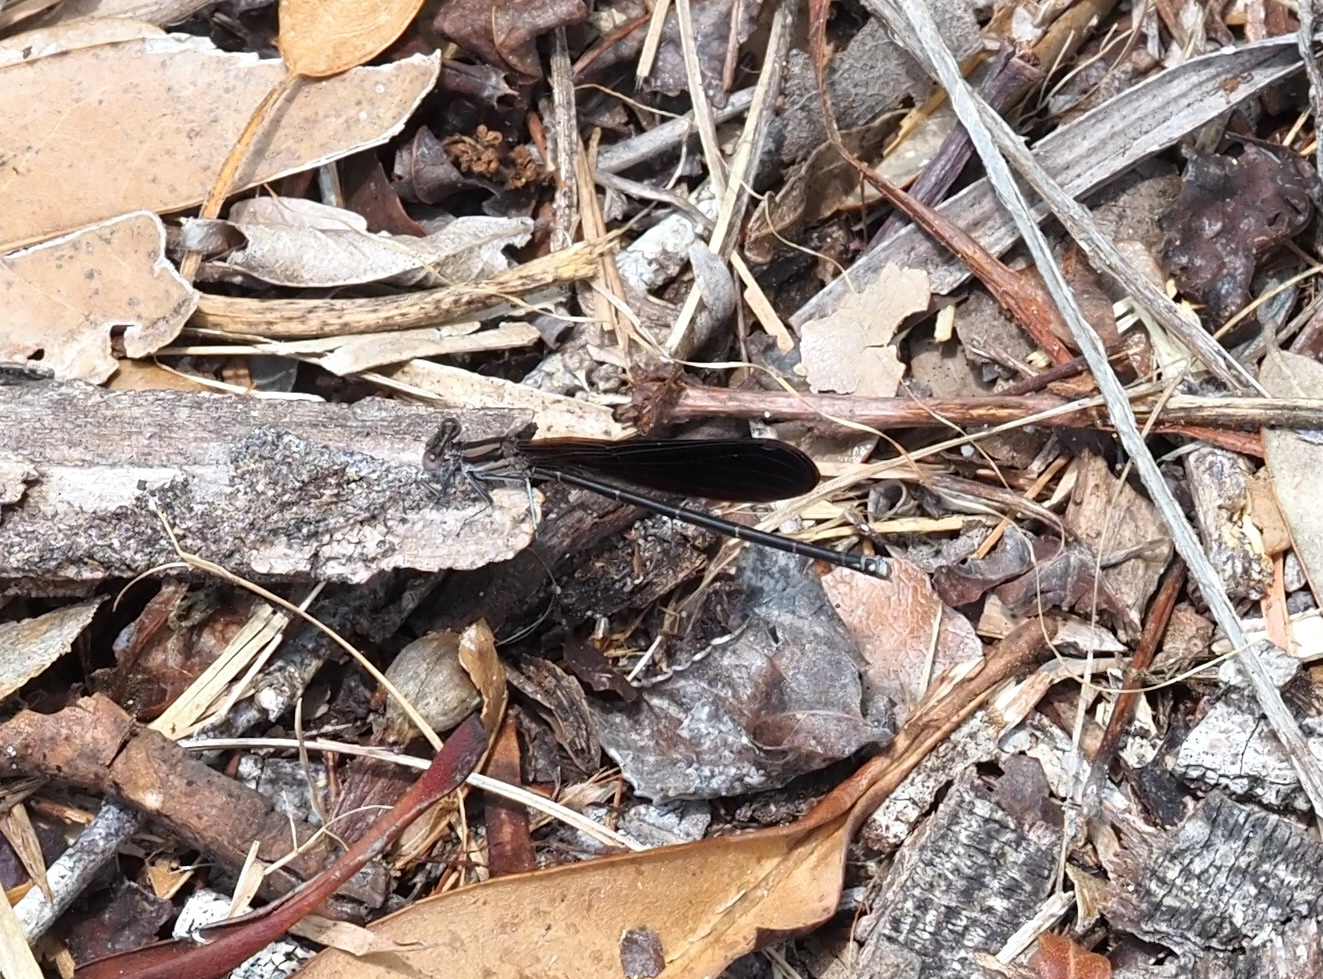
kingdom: Animalia
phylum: Arthropoda
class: Insecta
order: Odonata
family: Coenagrionidae
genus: Argia
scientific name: Argia fumipennis
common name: Variable dancer
